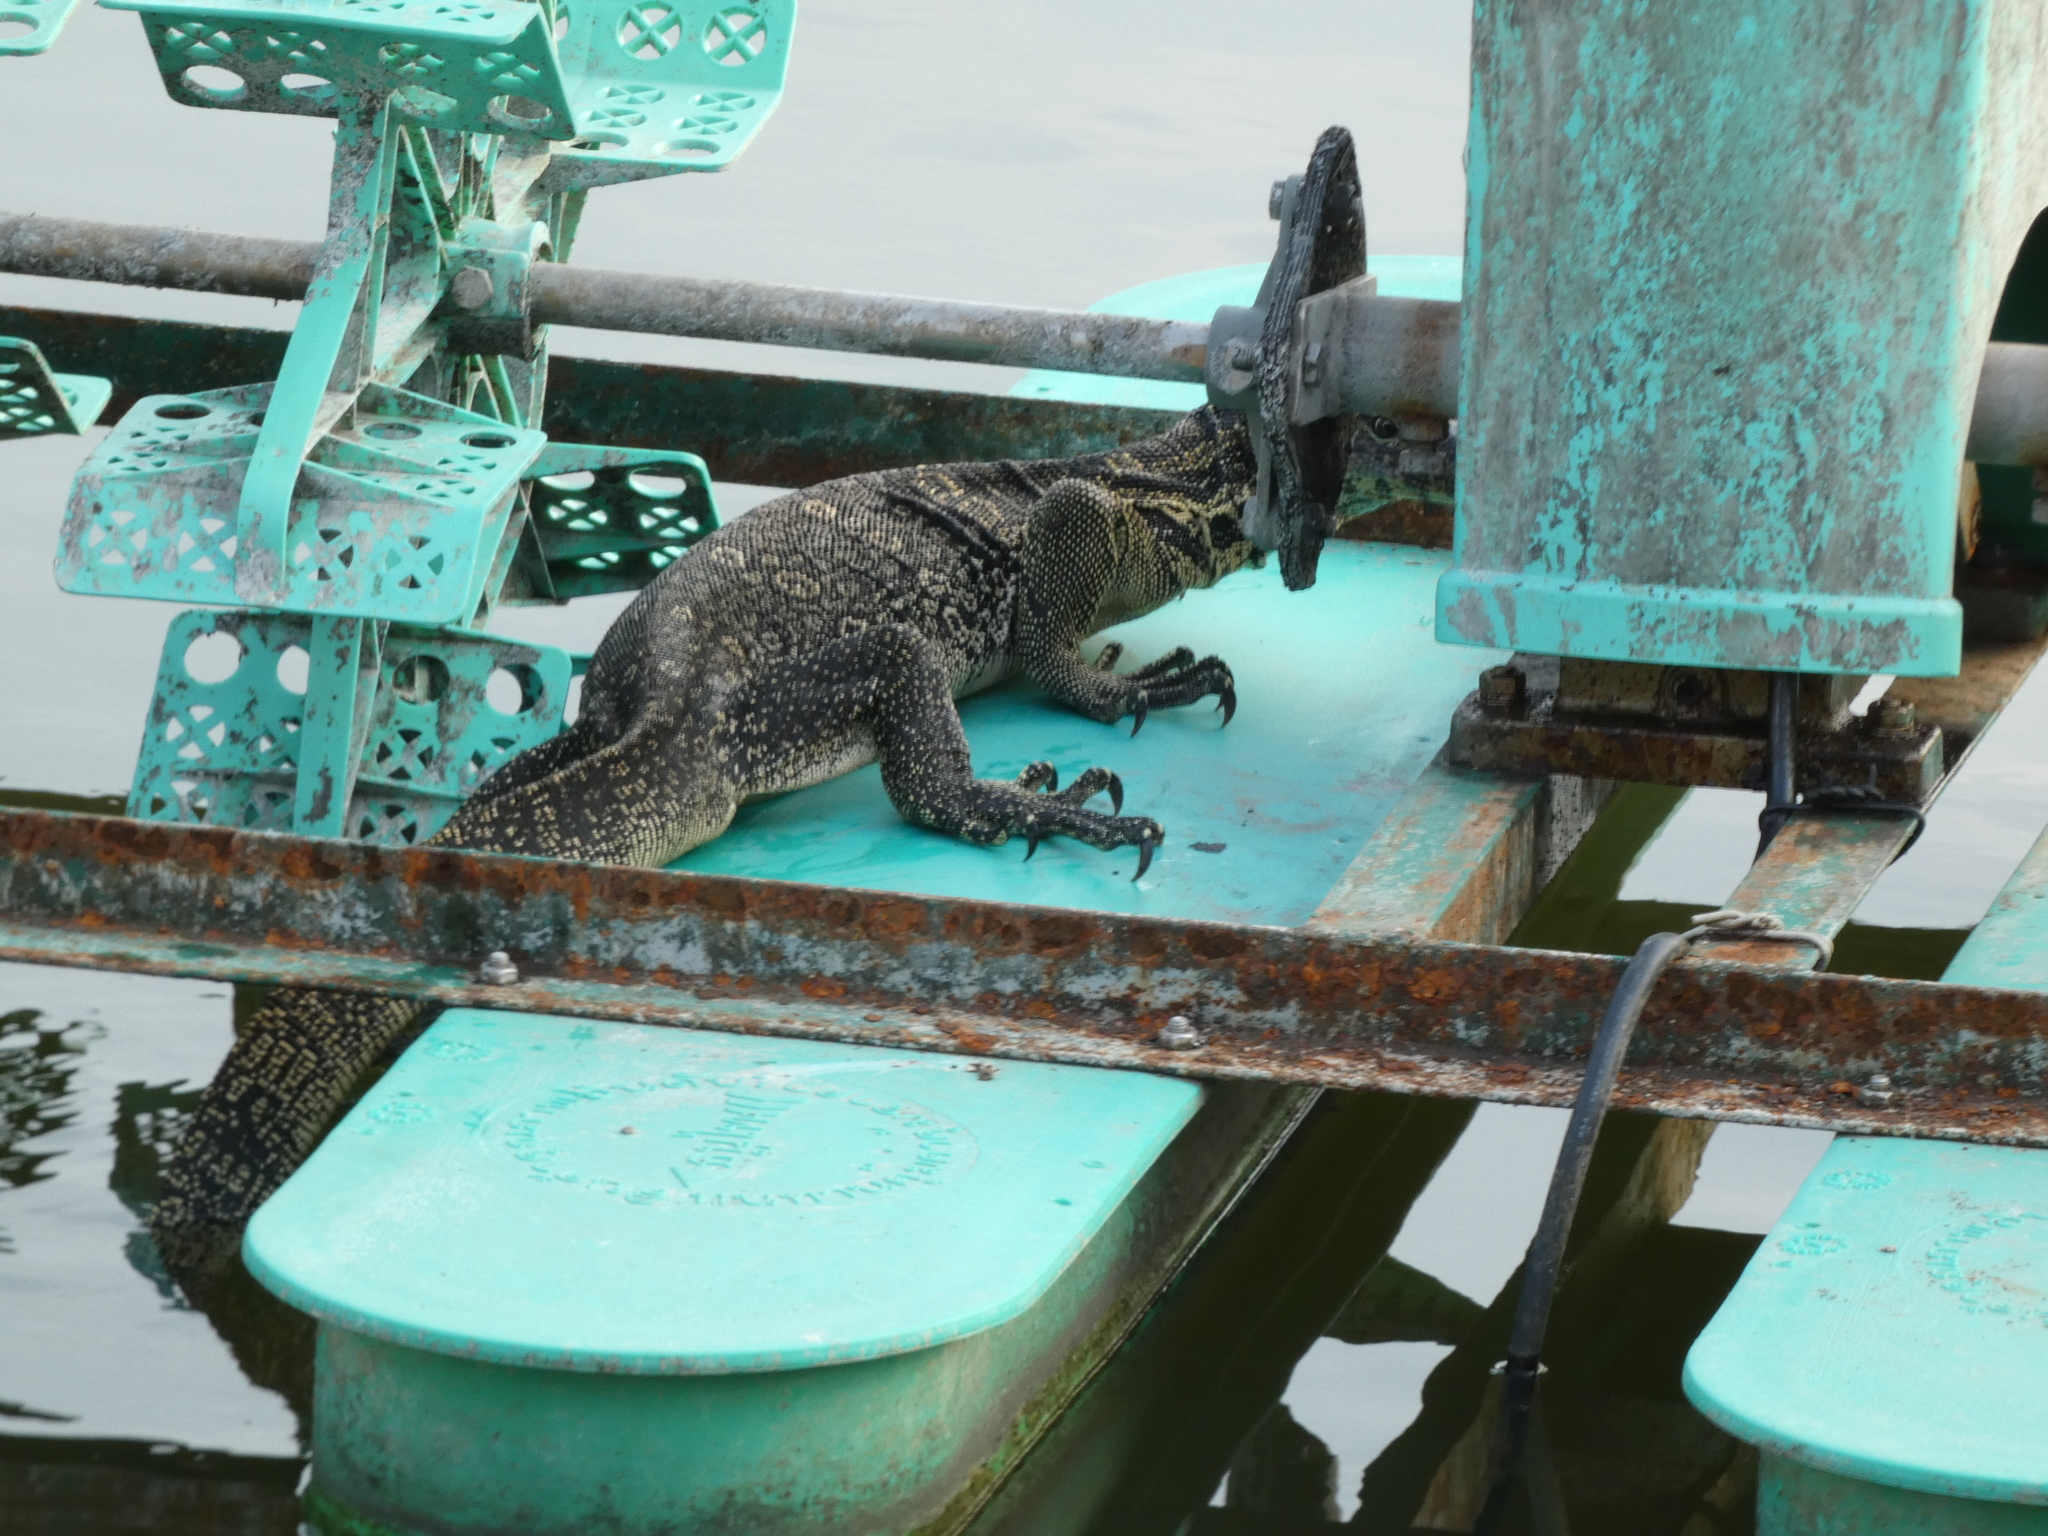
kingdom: Animalia
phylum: Chordata
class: Squamata
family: Varanidae
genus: Varanus
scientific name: Varanus salvator
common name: Common water monitor
